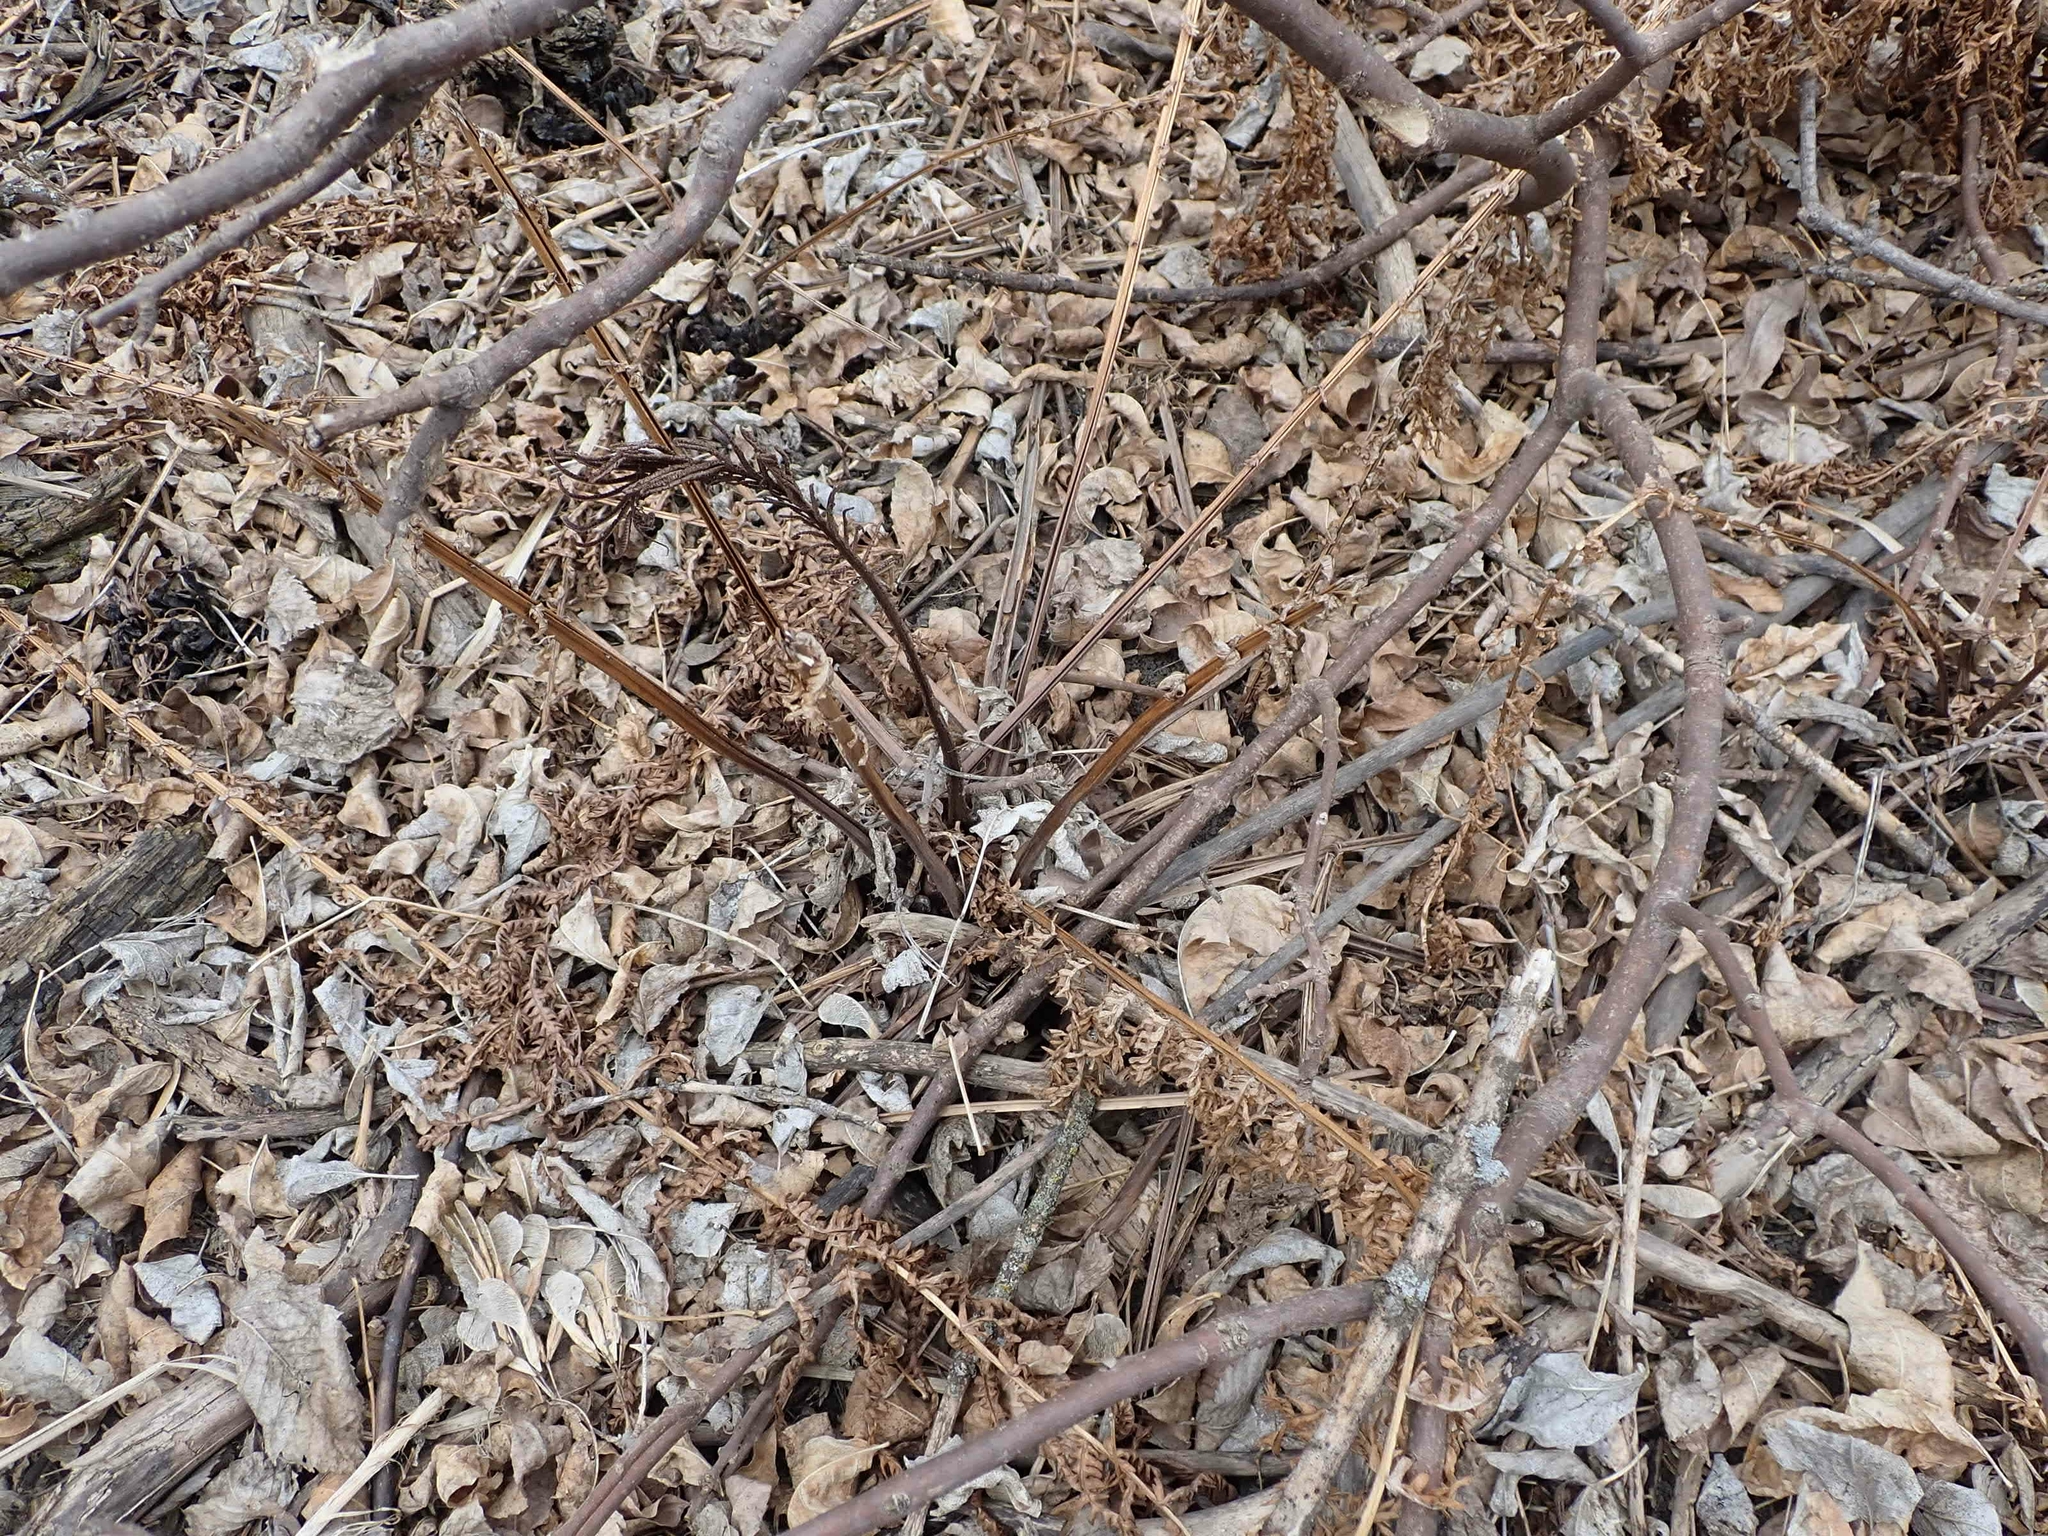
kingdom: Plantae
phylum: Tracheophyta
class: Polypodiopsida
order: Polypodiales
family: Onocleaceae
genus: Matteuccia
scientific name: Matteuccia struthiopteris
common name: Ostrich fern
